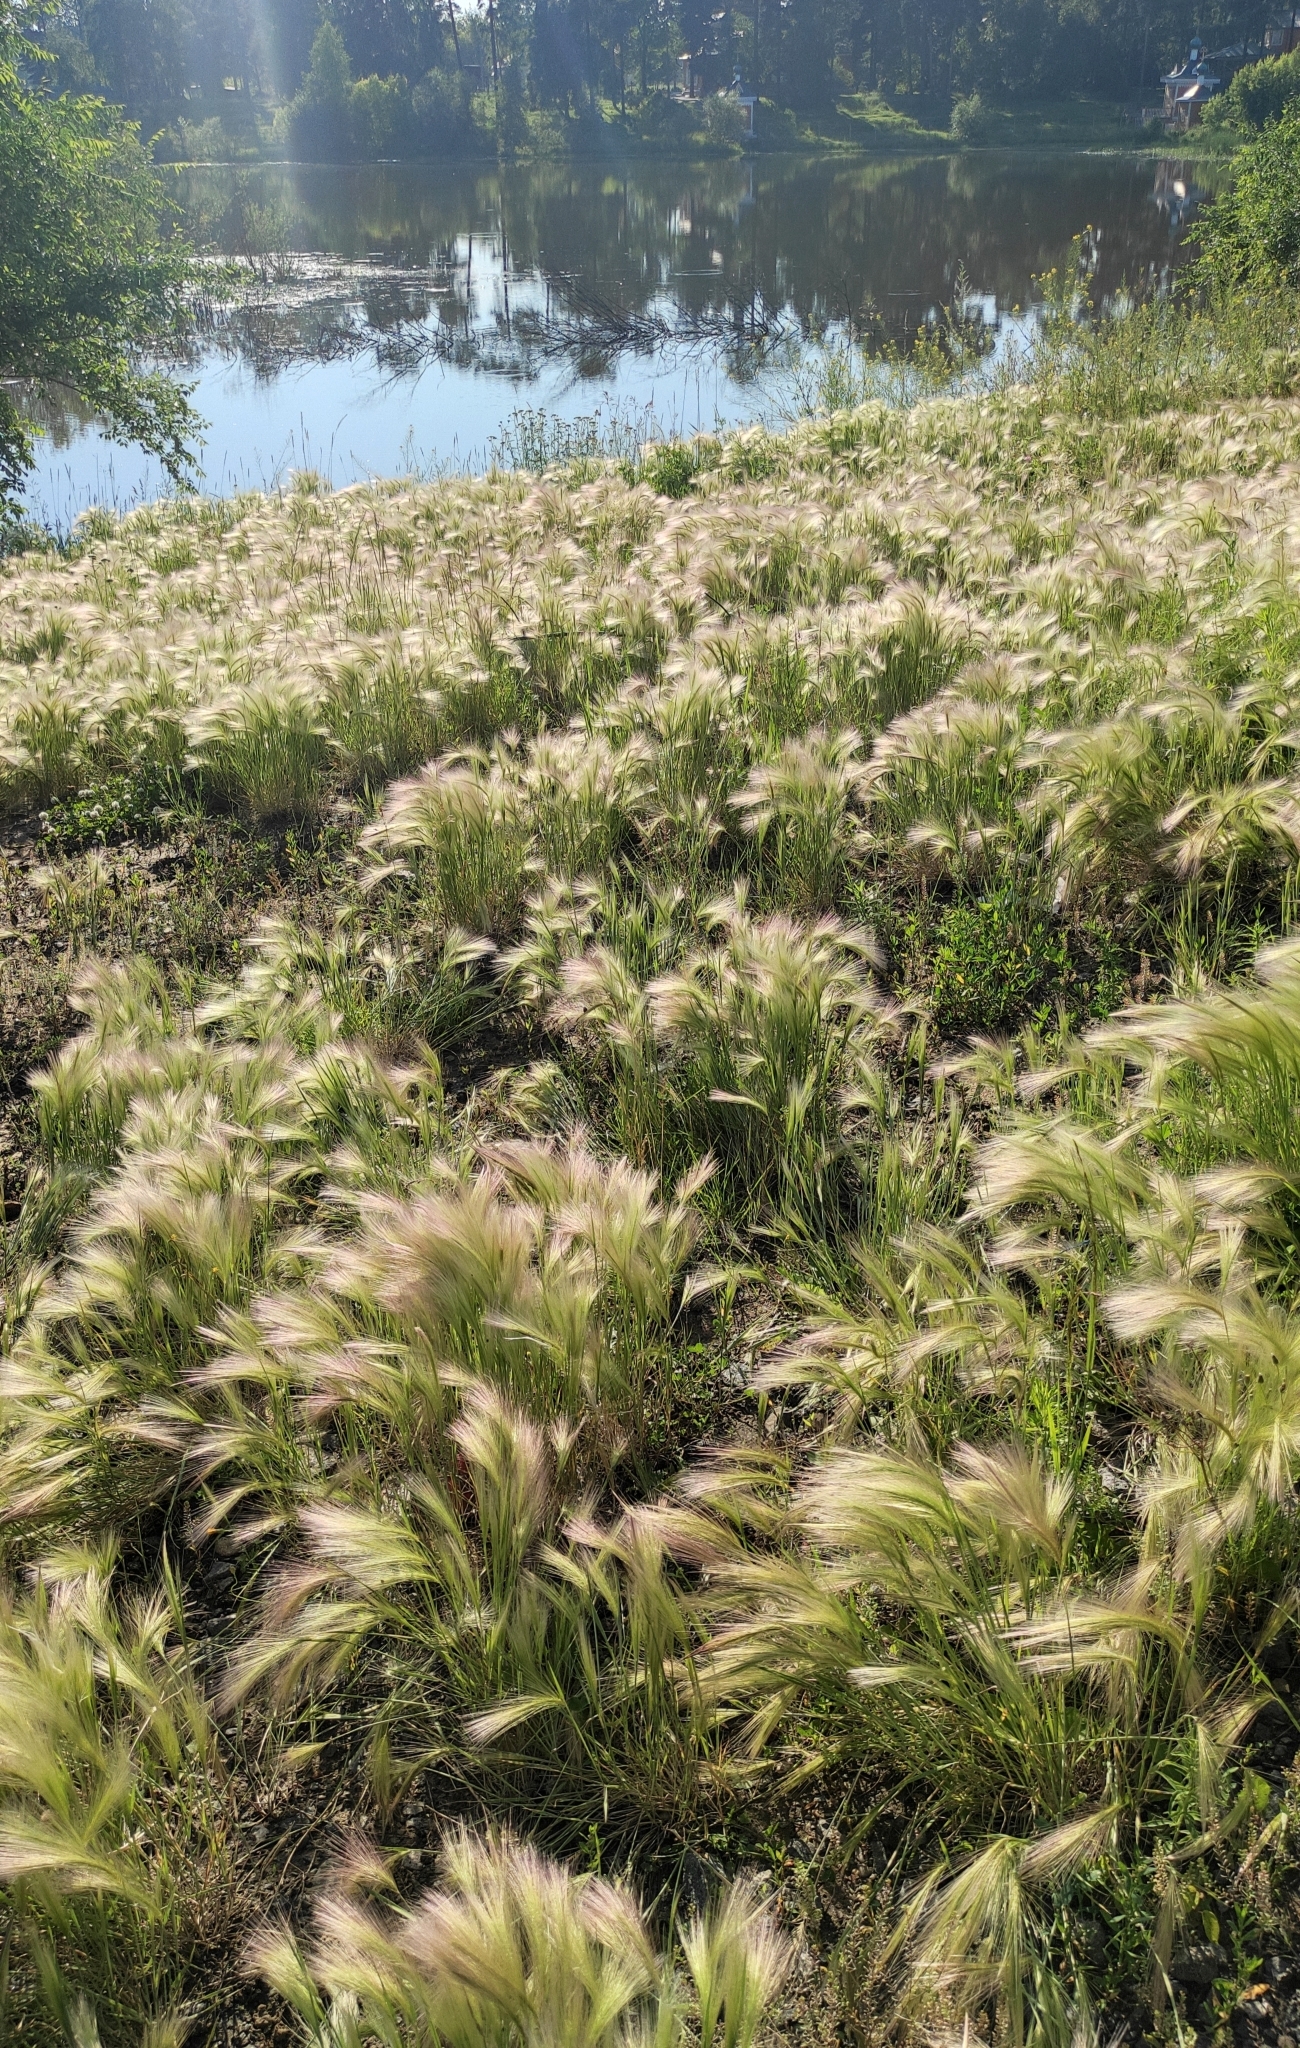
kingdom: Plantae
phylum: Tracheophyta
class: Liliopsida
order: Poales
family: Poaceae
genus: Hordeum
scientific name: Hordeum jubatum
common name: Foxtail barley
